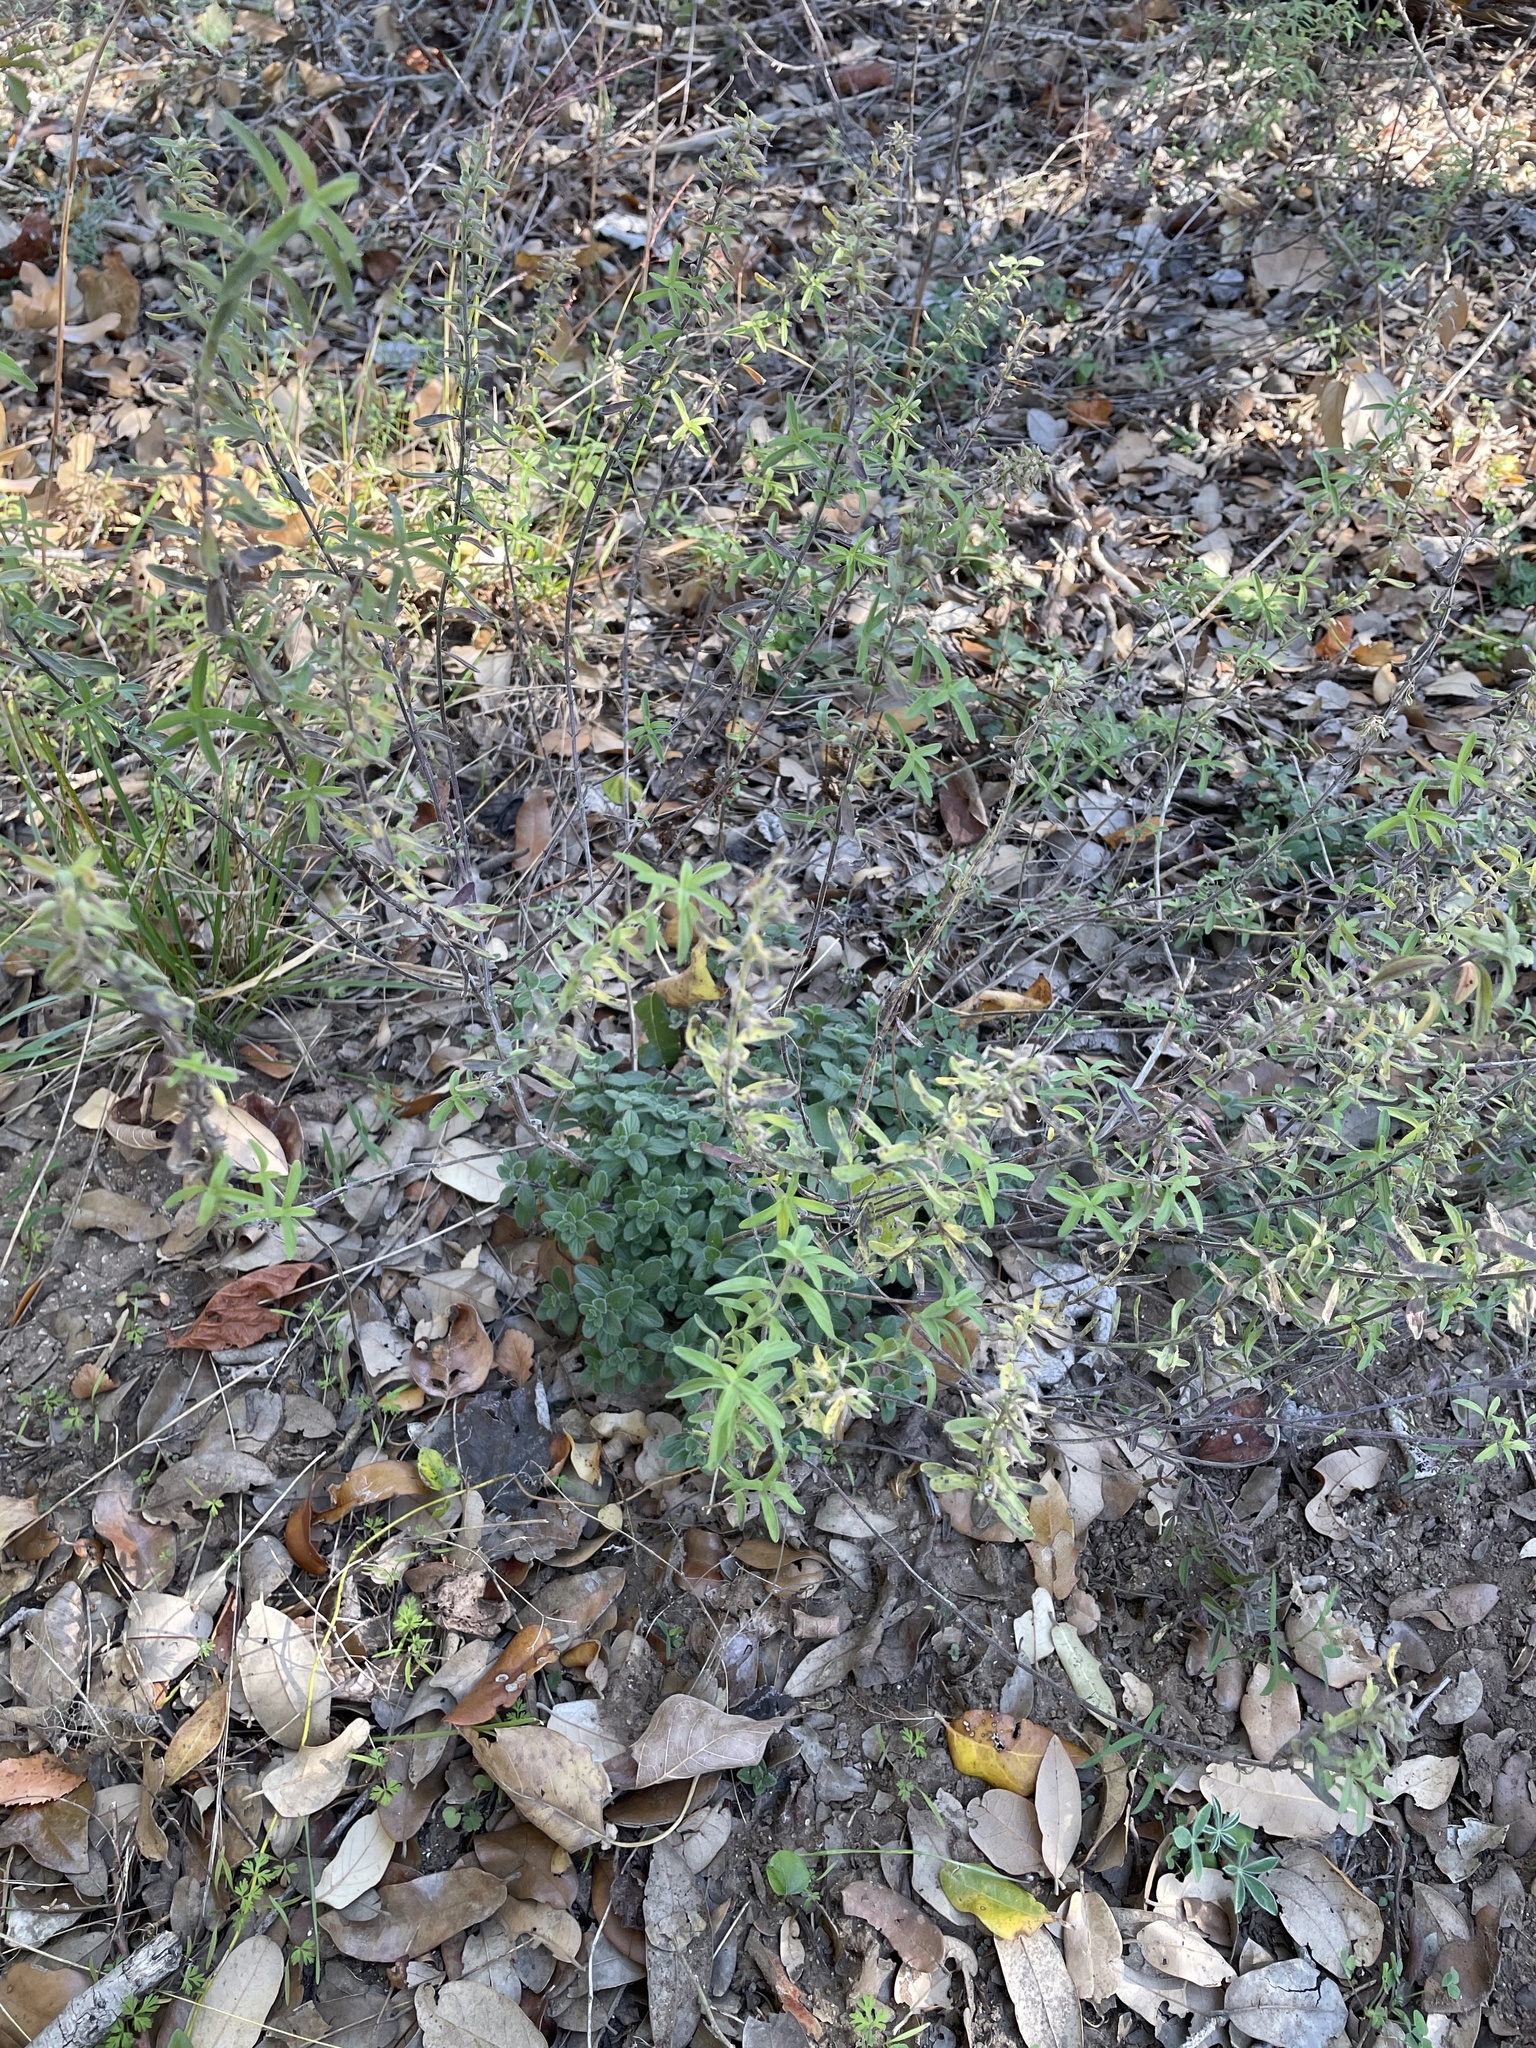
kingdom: Plantae
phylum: Tracheophyta
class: Magnoliopsida
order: Lamiales
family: Lamiaceae
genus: Hedeoma
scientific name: Hedeoma reverchonii
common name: Reverchon's false penny-royal
